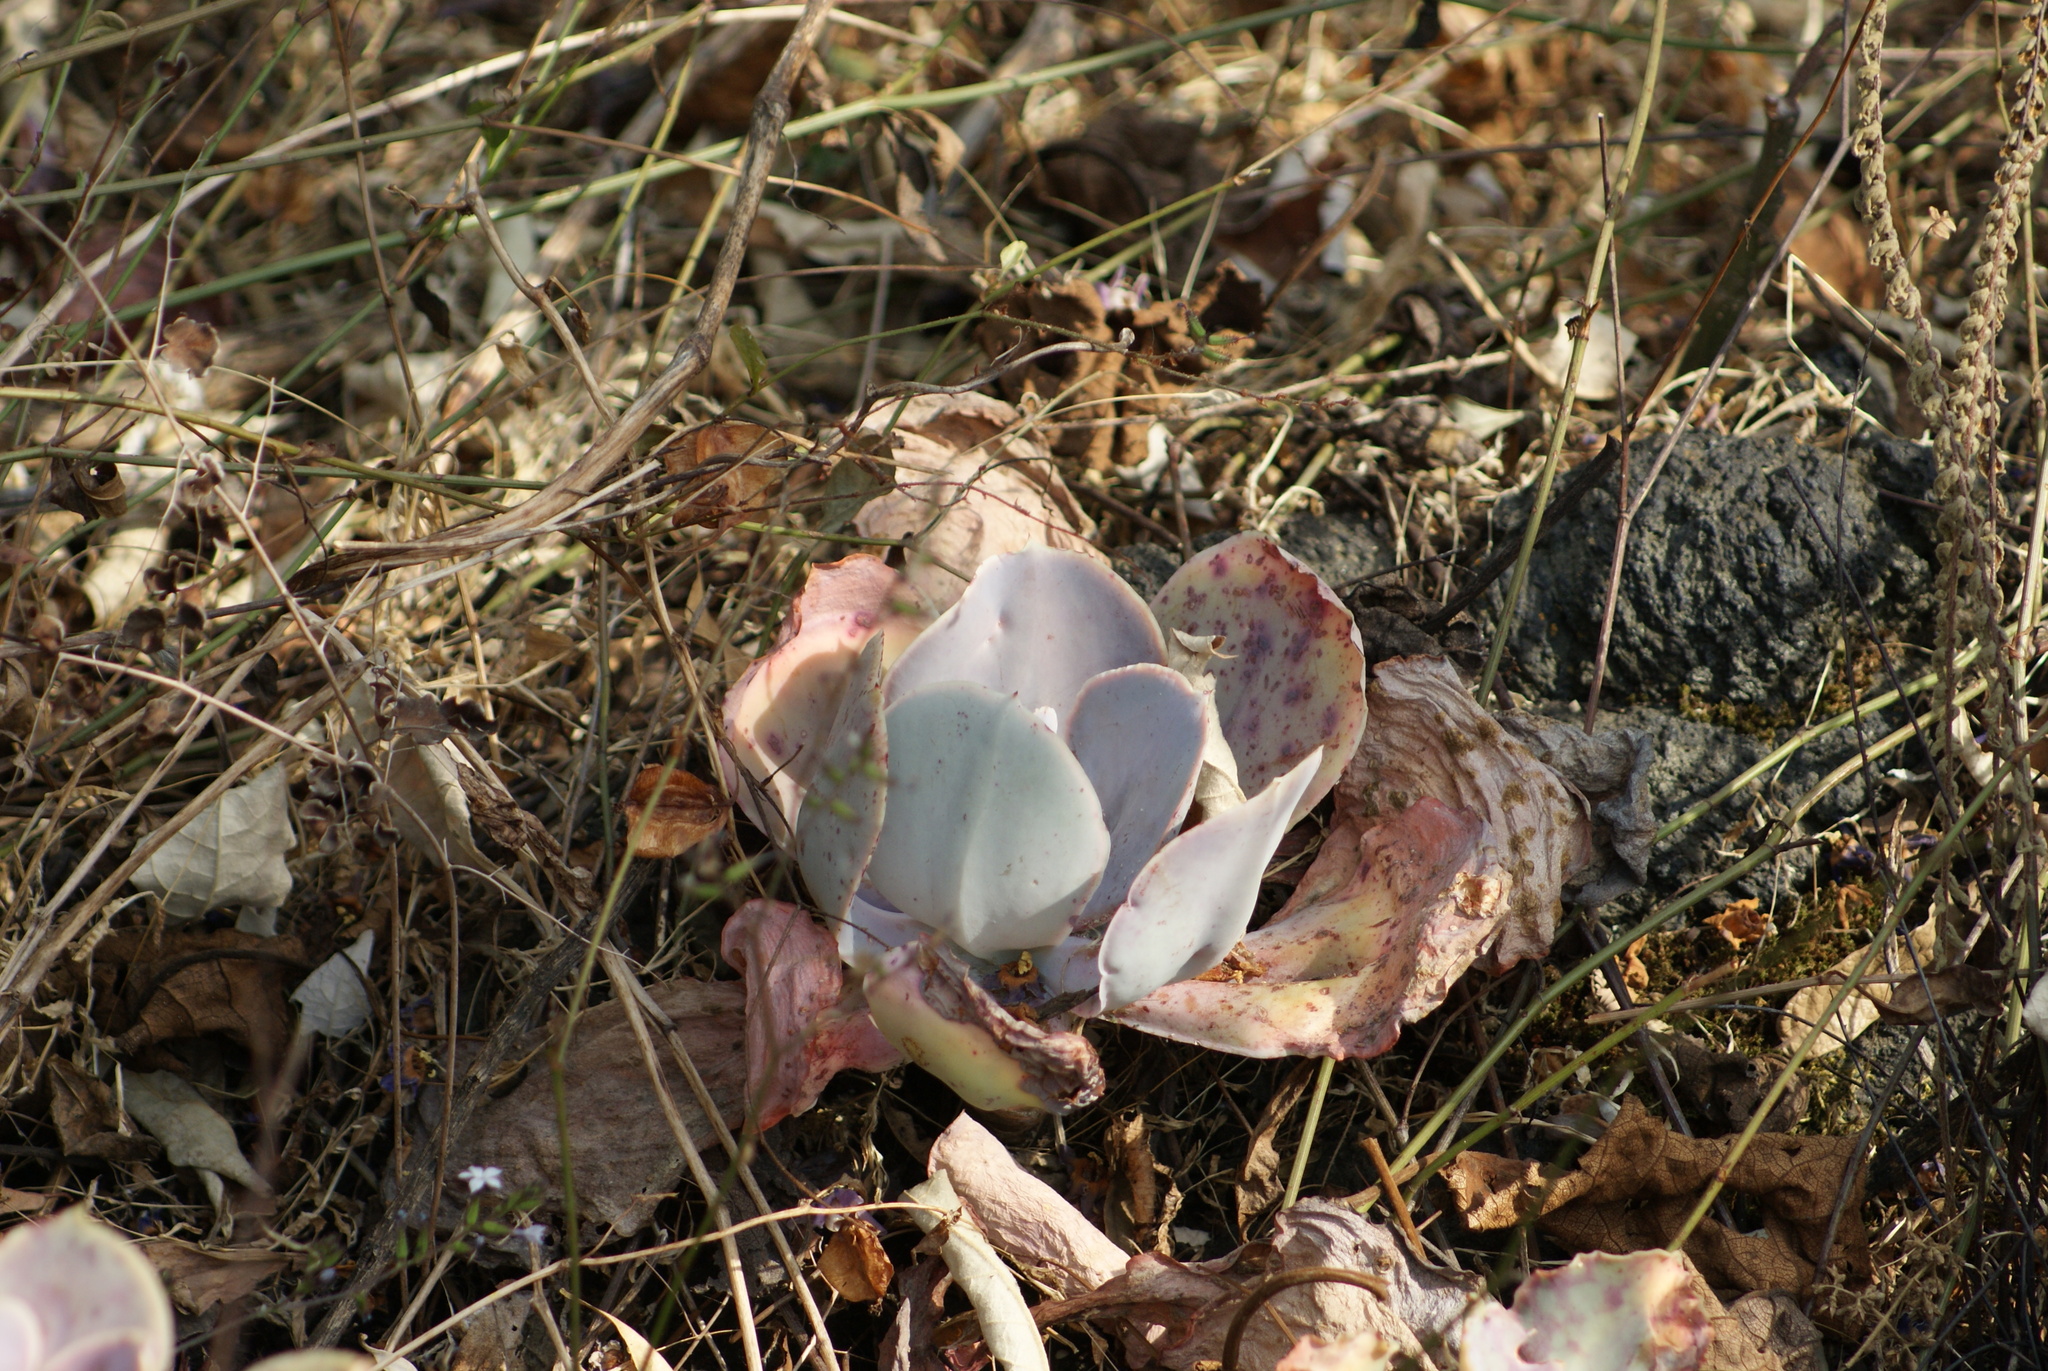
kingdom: Plantae
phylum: Tracheophyta
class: Magnoliopsida
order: Saxifragales
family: Crassulaceae
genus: Echeveria
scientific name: Echeveria gibbiflora
